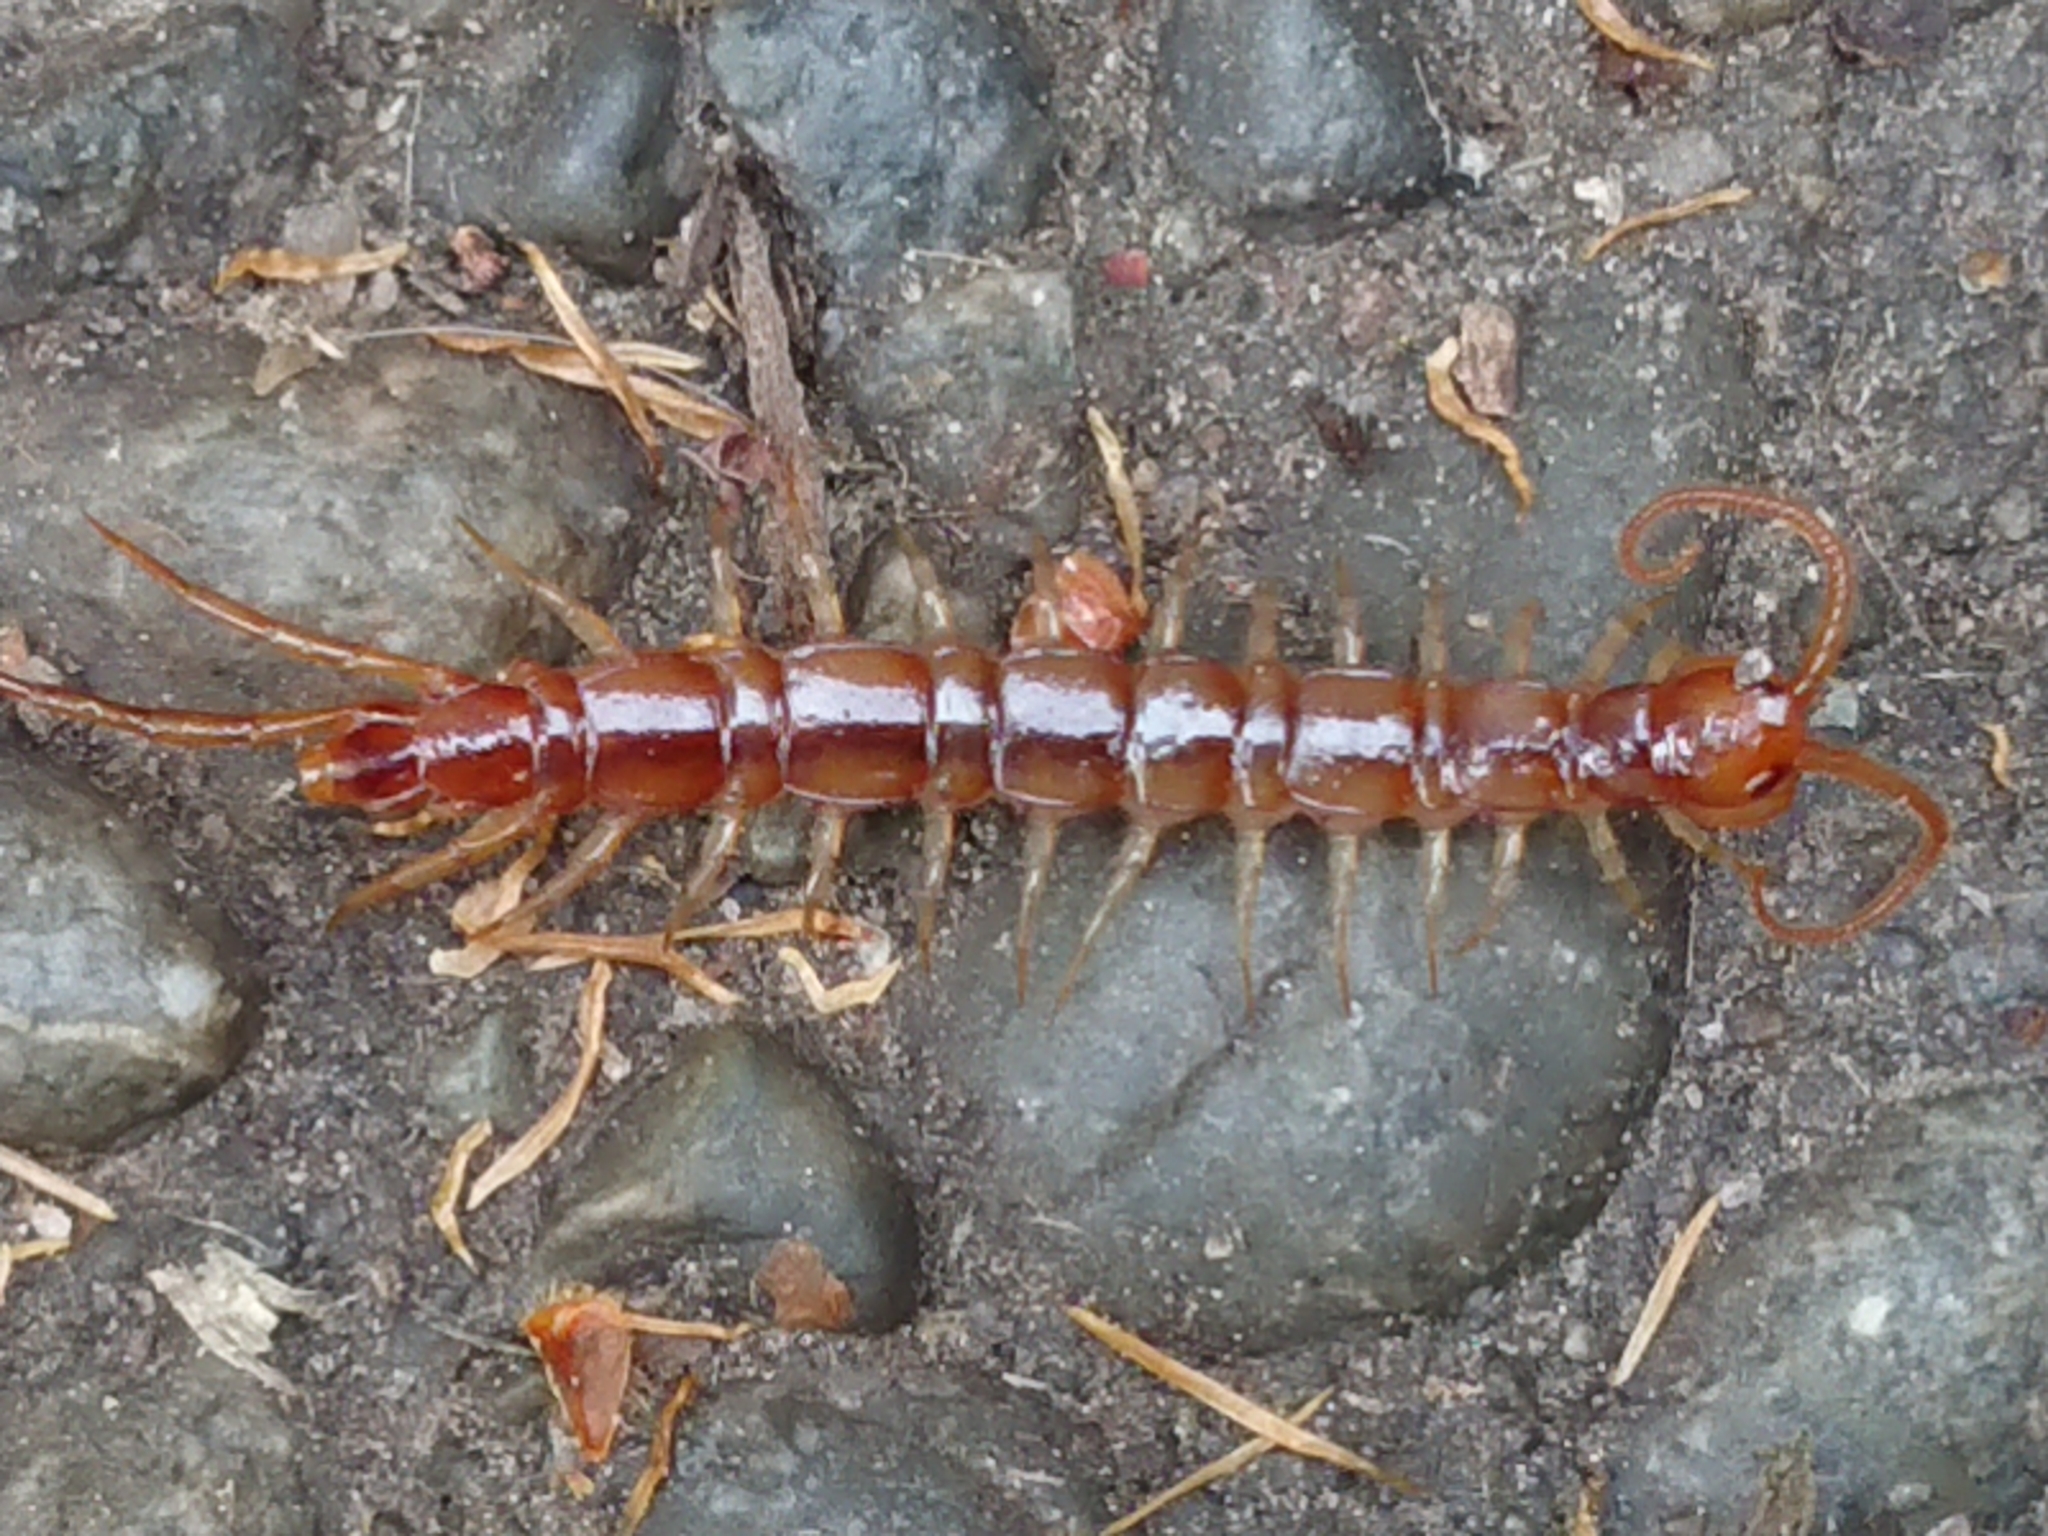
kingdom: Animalia
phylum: Arthropoda
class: Chilopoda
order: Lithobiomorpha
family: Lithobiidae
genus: Lithobius
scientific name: Lithobius forficatus
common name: Centipede
